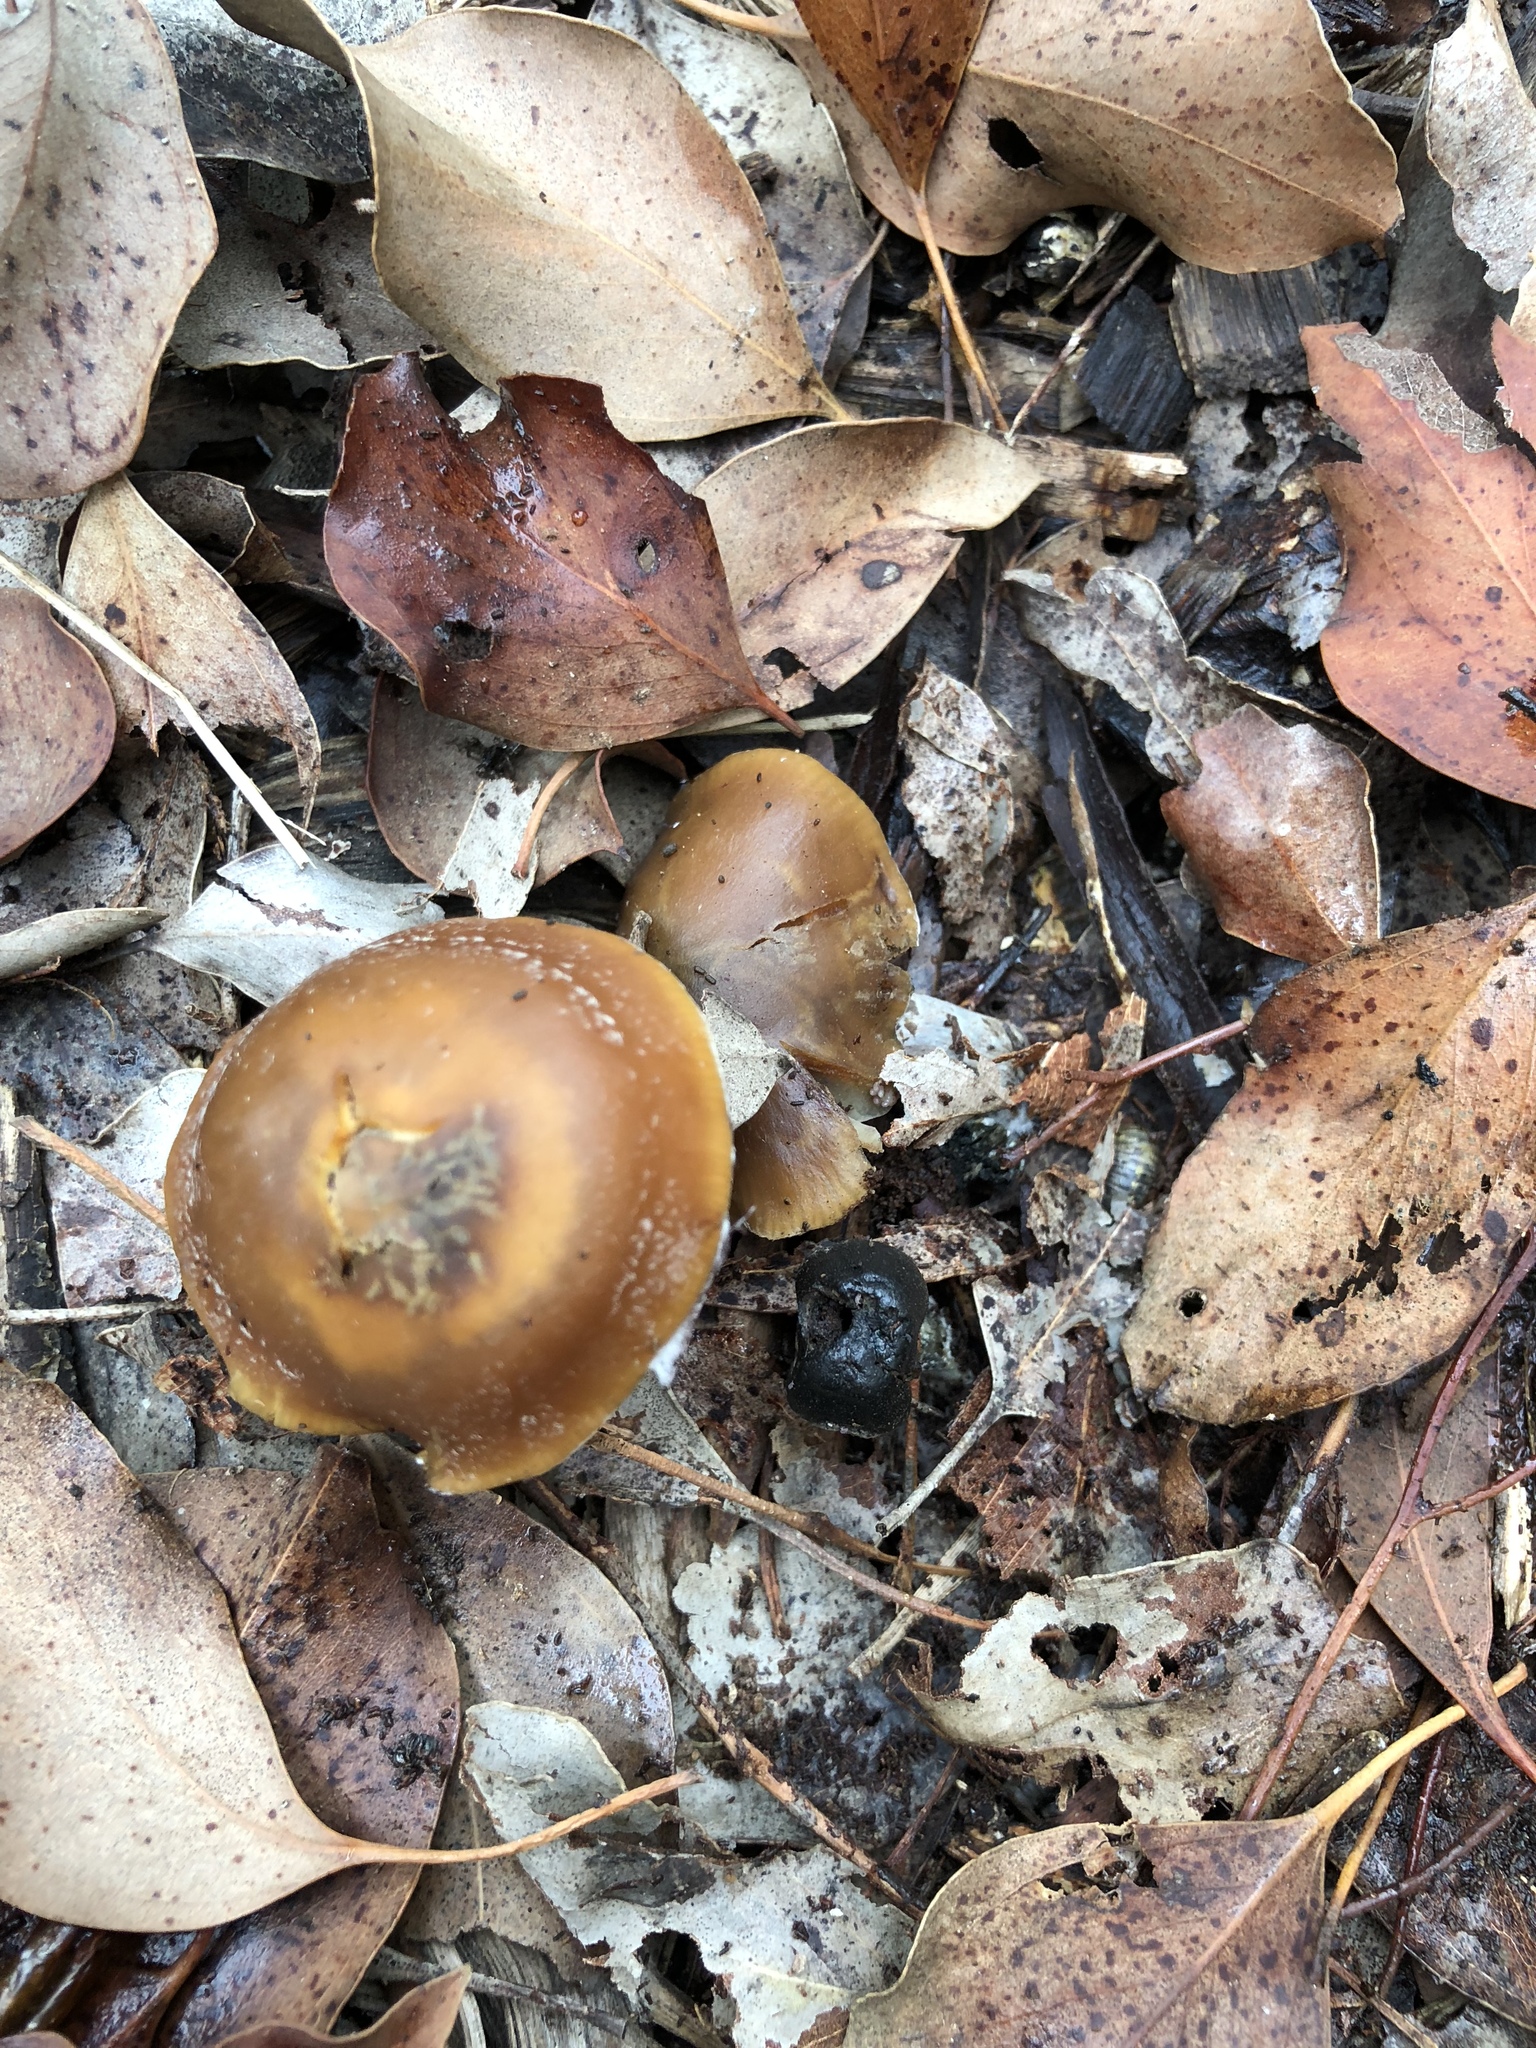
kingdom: Fungi
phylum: Basidiomycota
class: Agaricomycetes
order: Agaricales
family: Hymenogastraceae
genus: Psilocybe
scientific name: Psilocybe subaeruginosa
